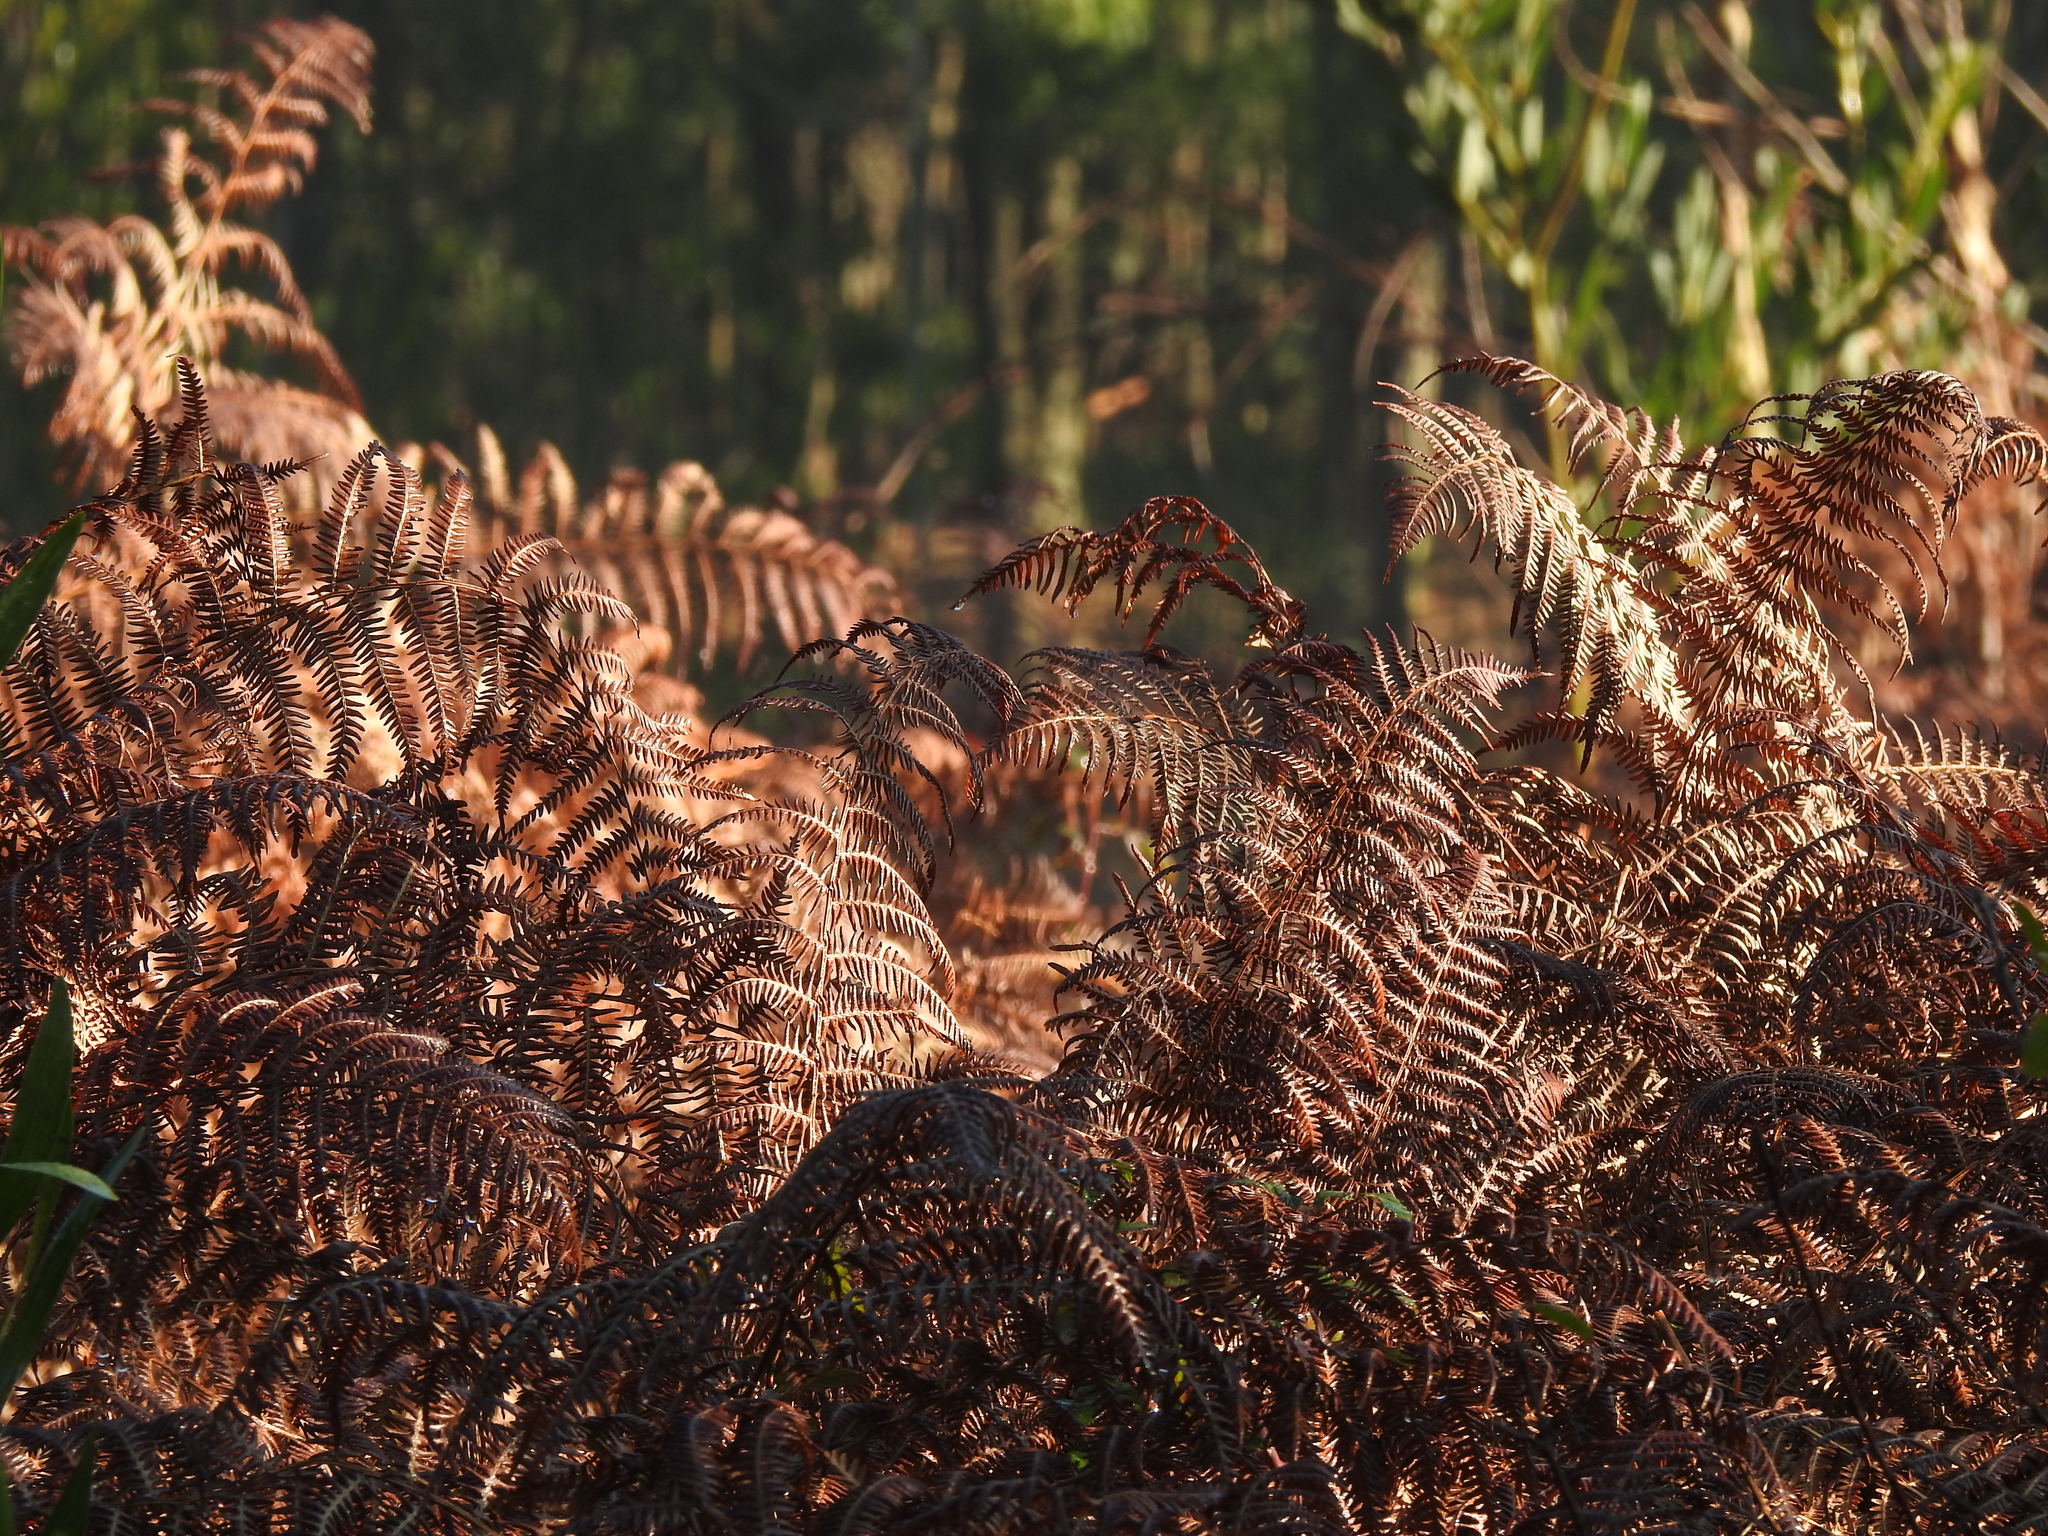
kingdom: Plantae
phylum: Tracheophyta
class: Polypodiopsida
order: Polypodiales
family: Dennstaedtiaceae
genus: Pteridium
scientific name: Pteridium aquilinum
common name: Bracken
